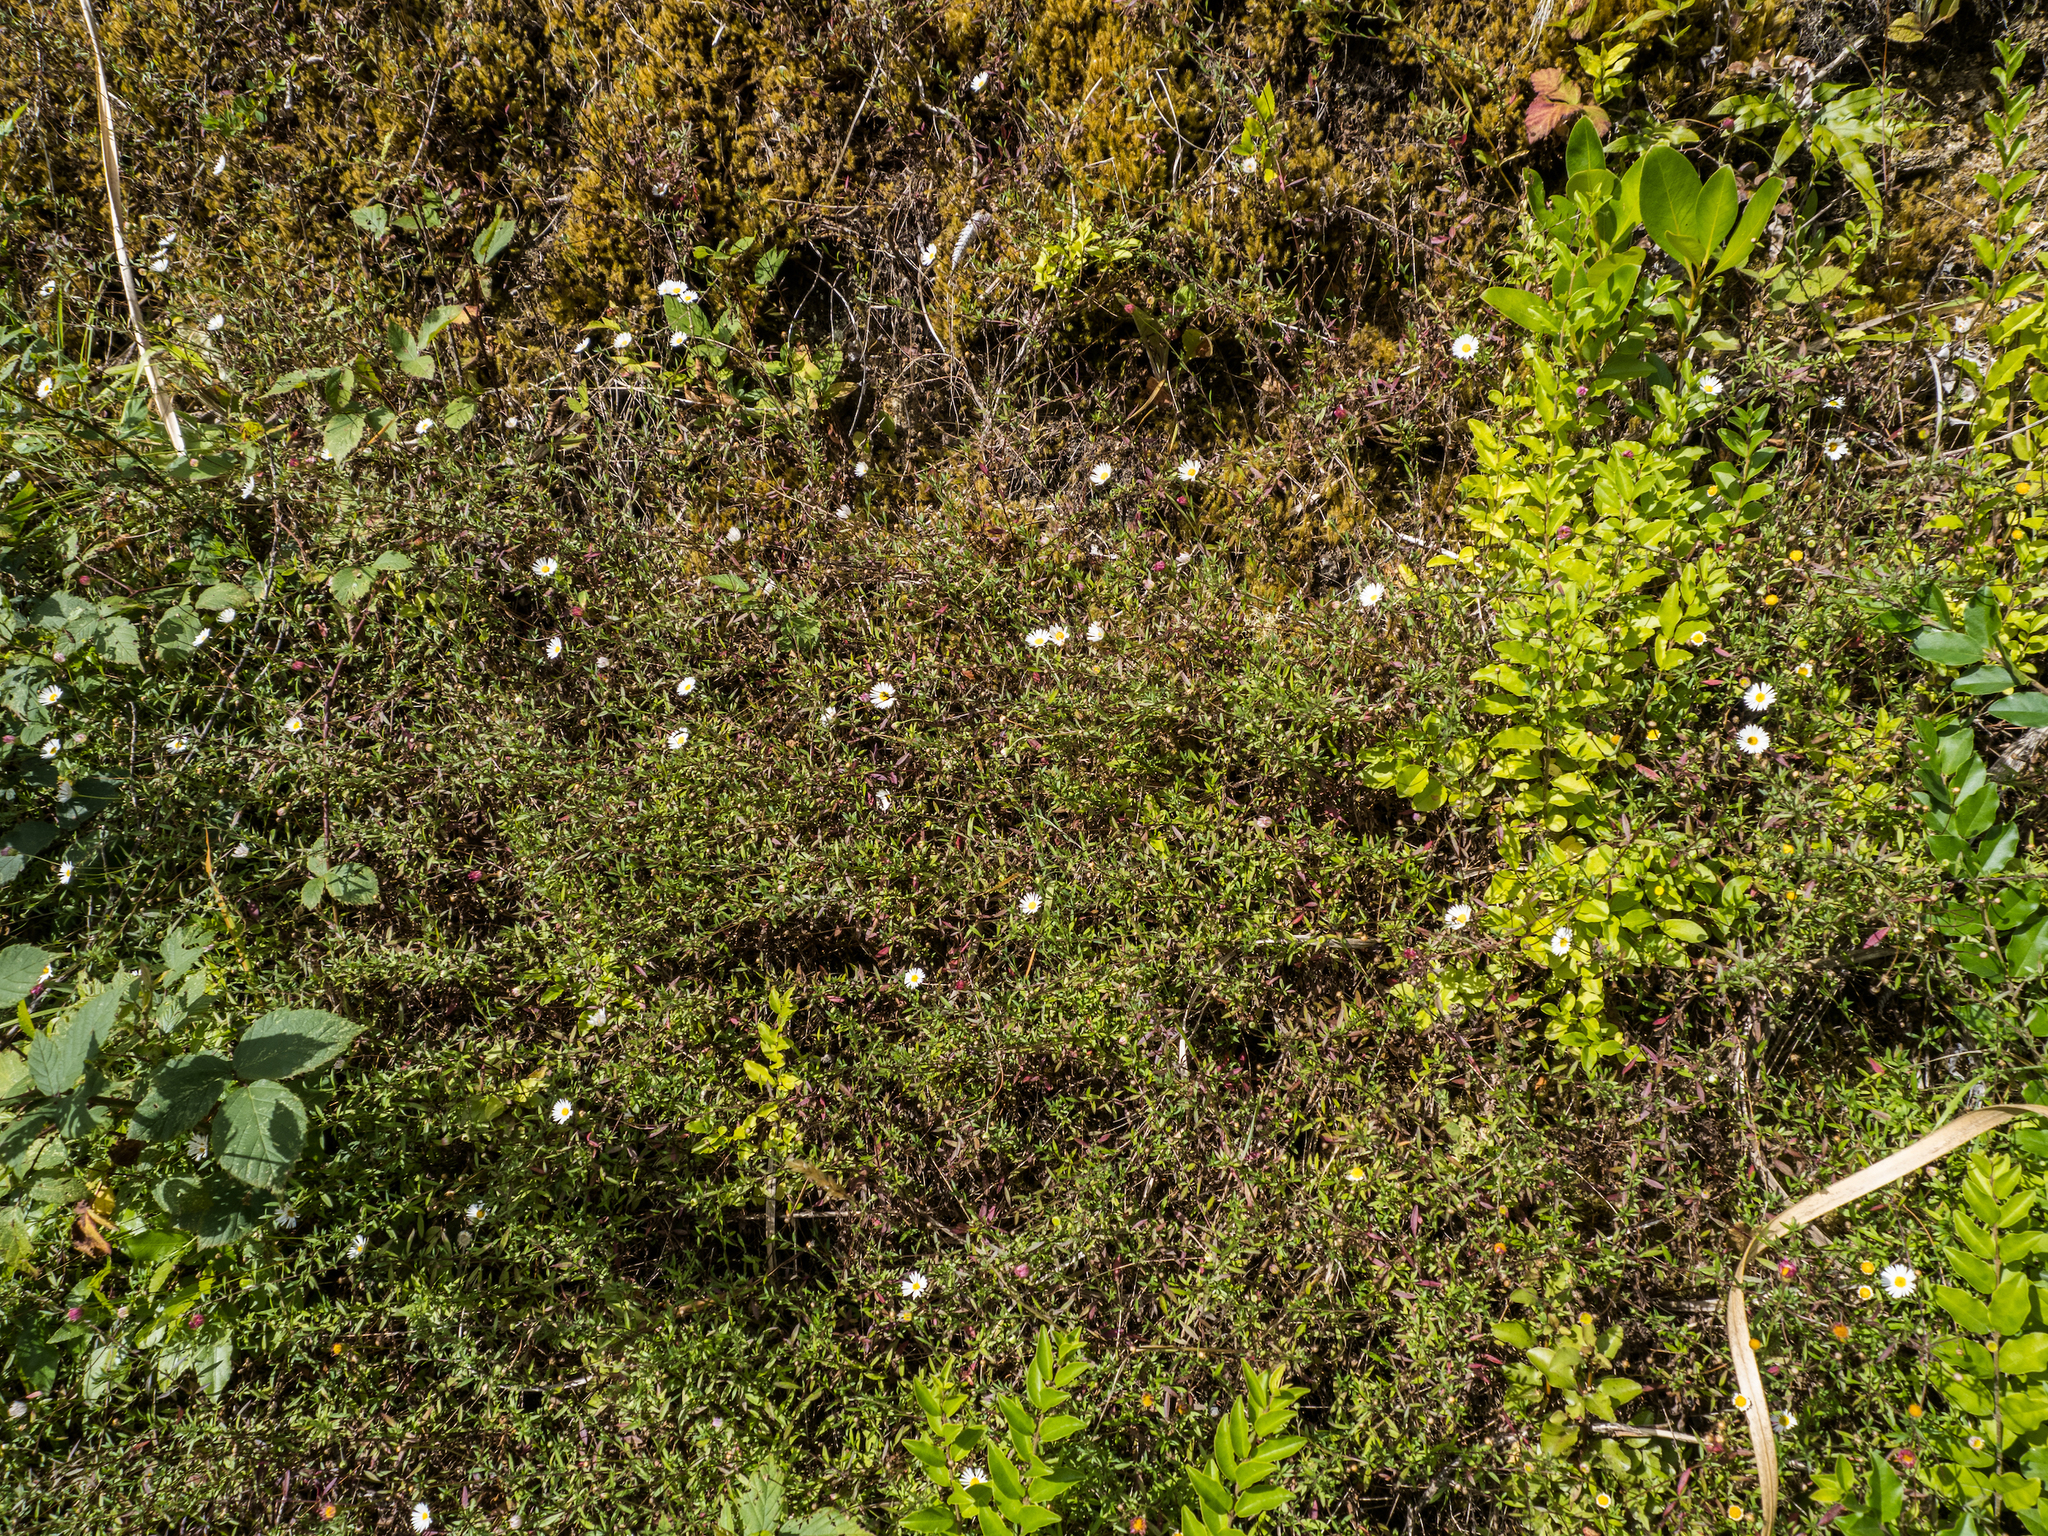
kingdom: Plantae
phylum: Tracheophyta
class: Magnoliopsida
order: Asterales
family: Asteraceae
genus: Erigeron
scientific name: Erigeron karvinskianus
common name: Mexican fleabane
